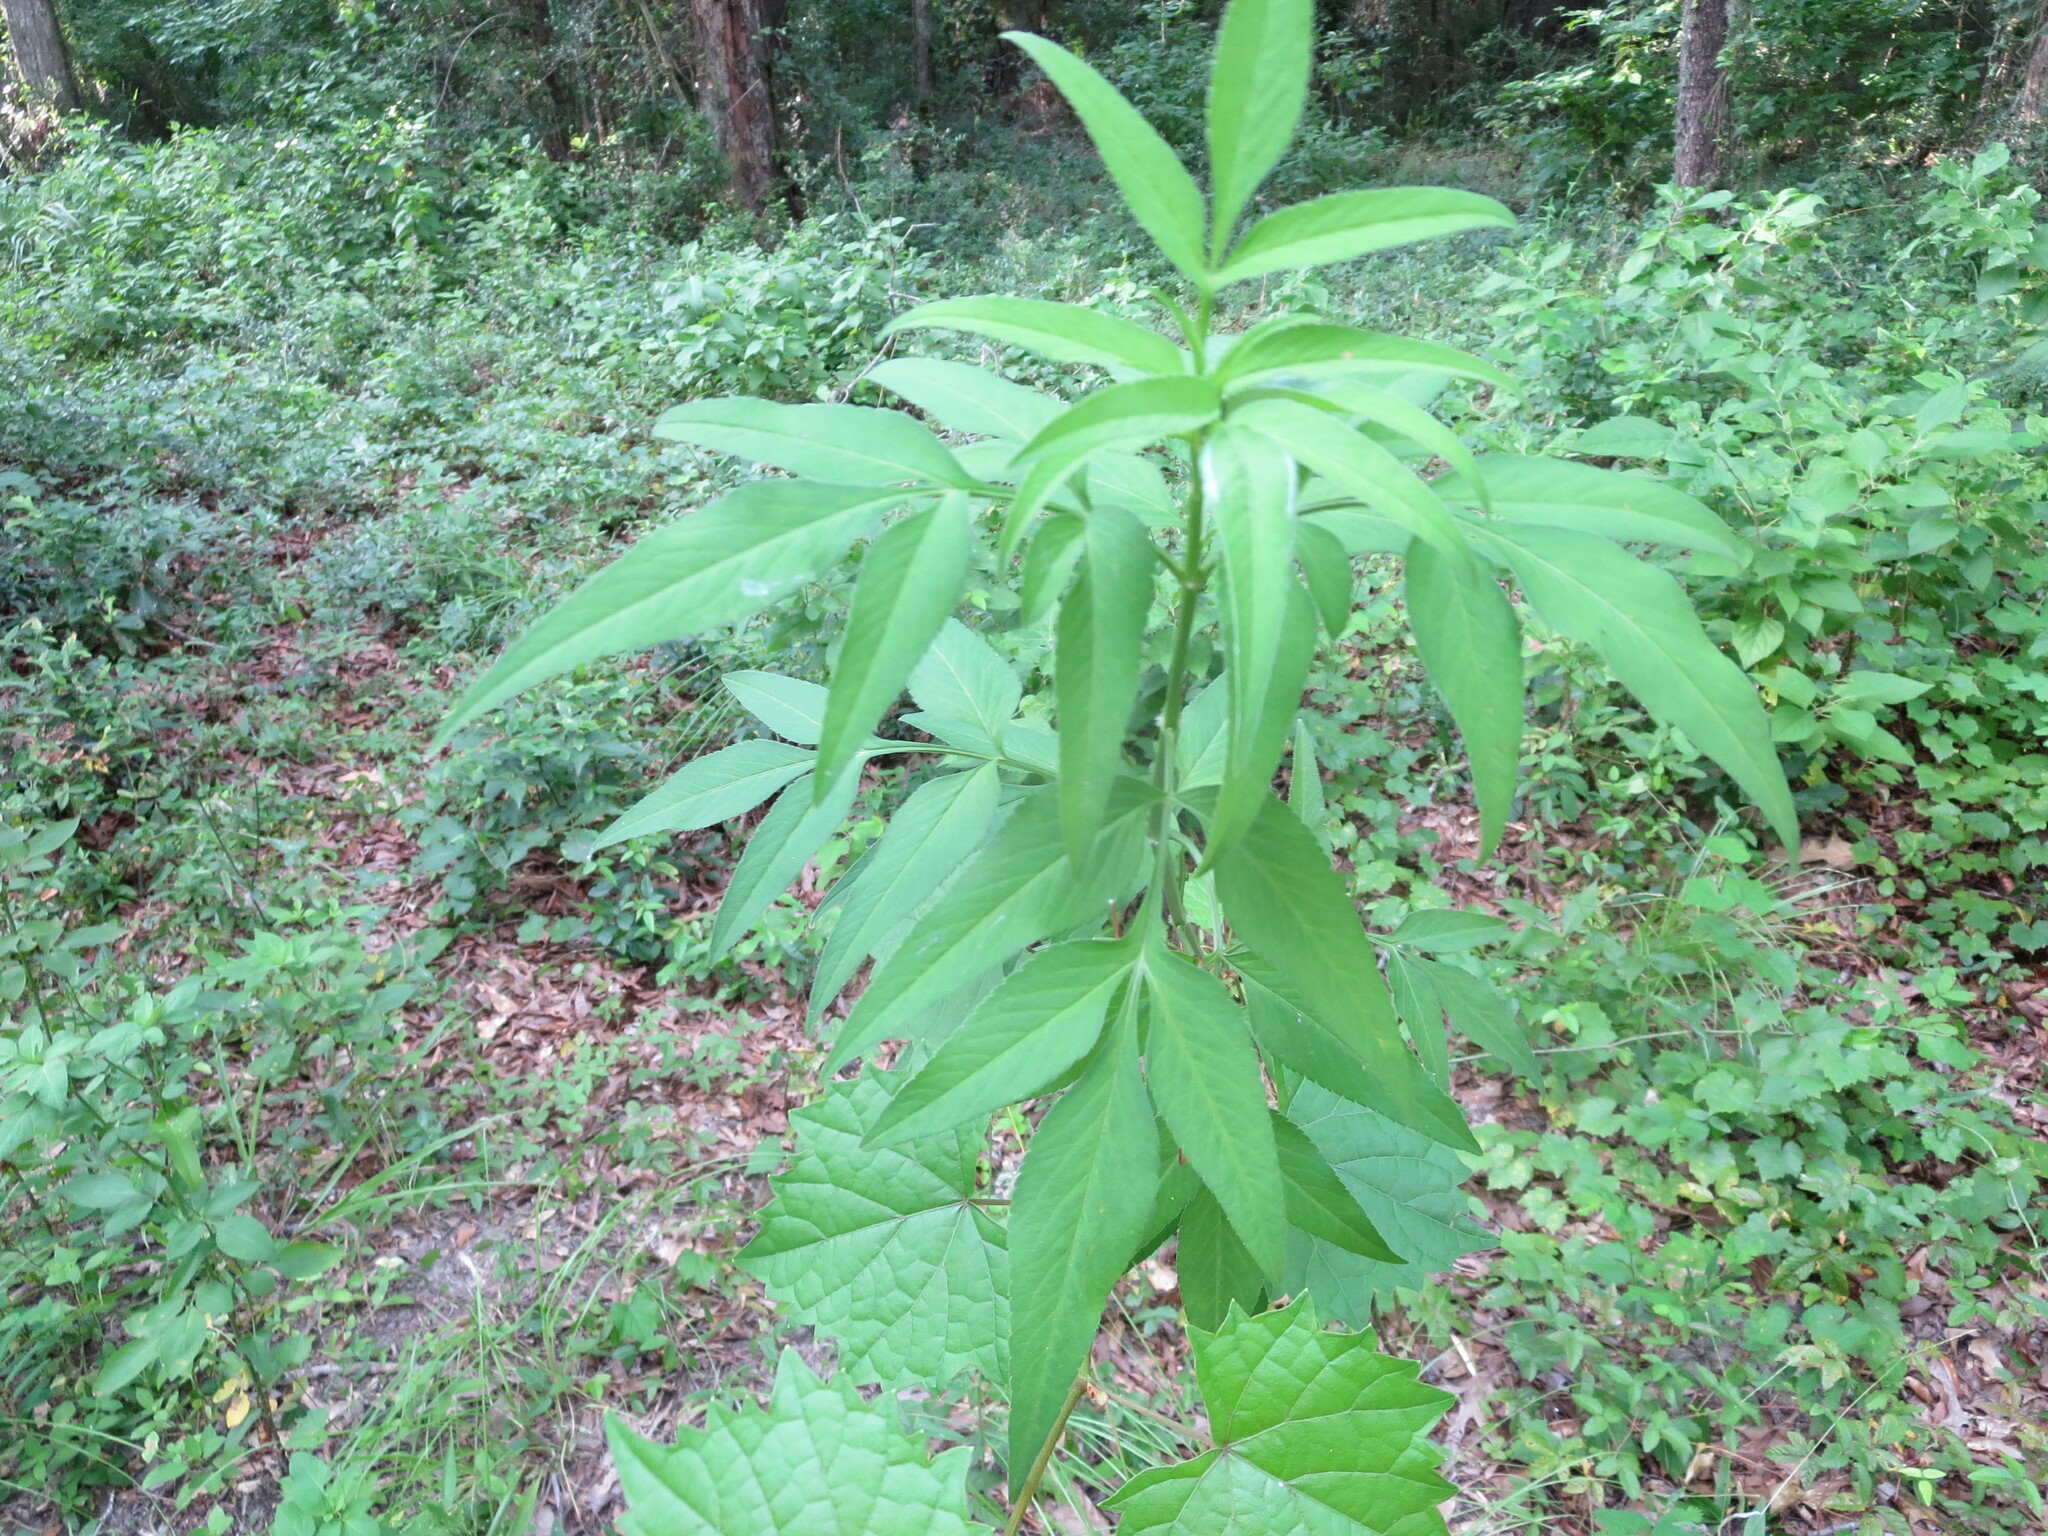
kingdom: Plantae
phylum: Tracheophyta
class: Magnoliopsida
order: Dipsacales
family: Viburnaceae
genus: Sambucus
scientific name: Sambucus canadensis
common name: American elder
